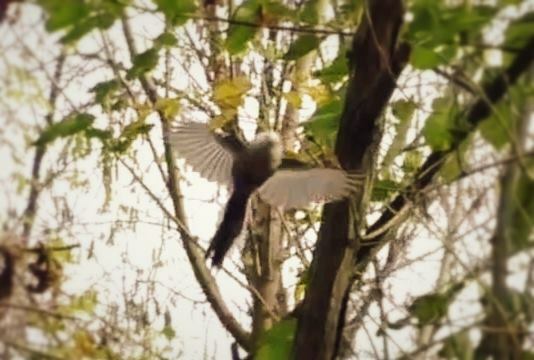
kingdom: Animalia
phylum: Chordata
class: Aves
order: Passeriformes
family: Aegithalidae
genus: Aegithalos
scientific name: Aegithalos caudatus
